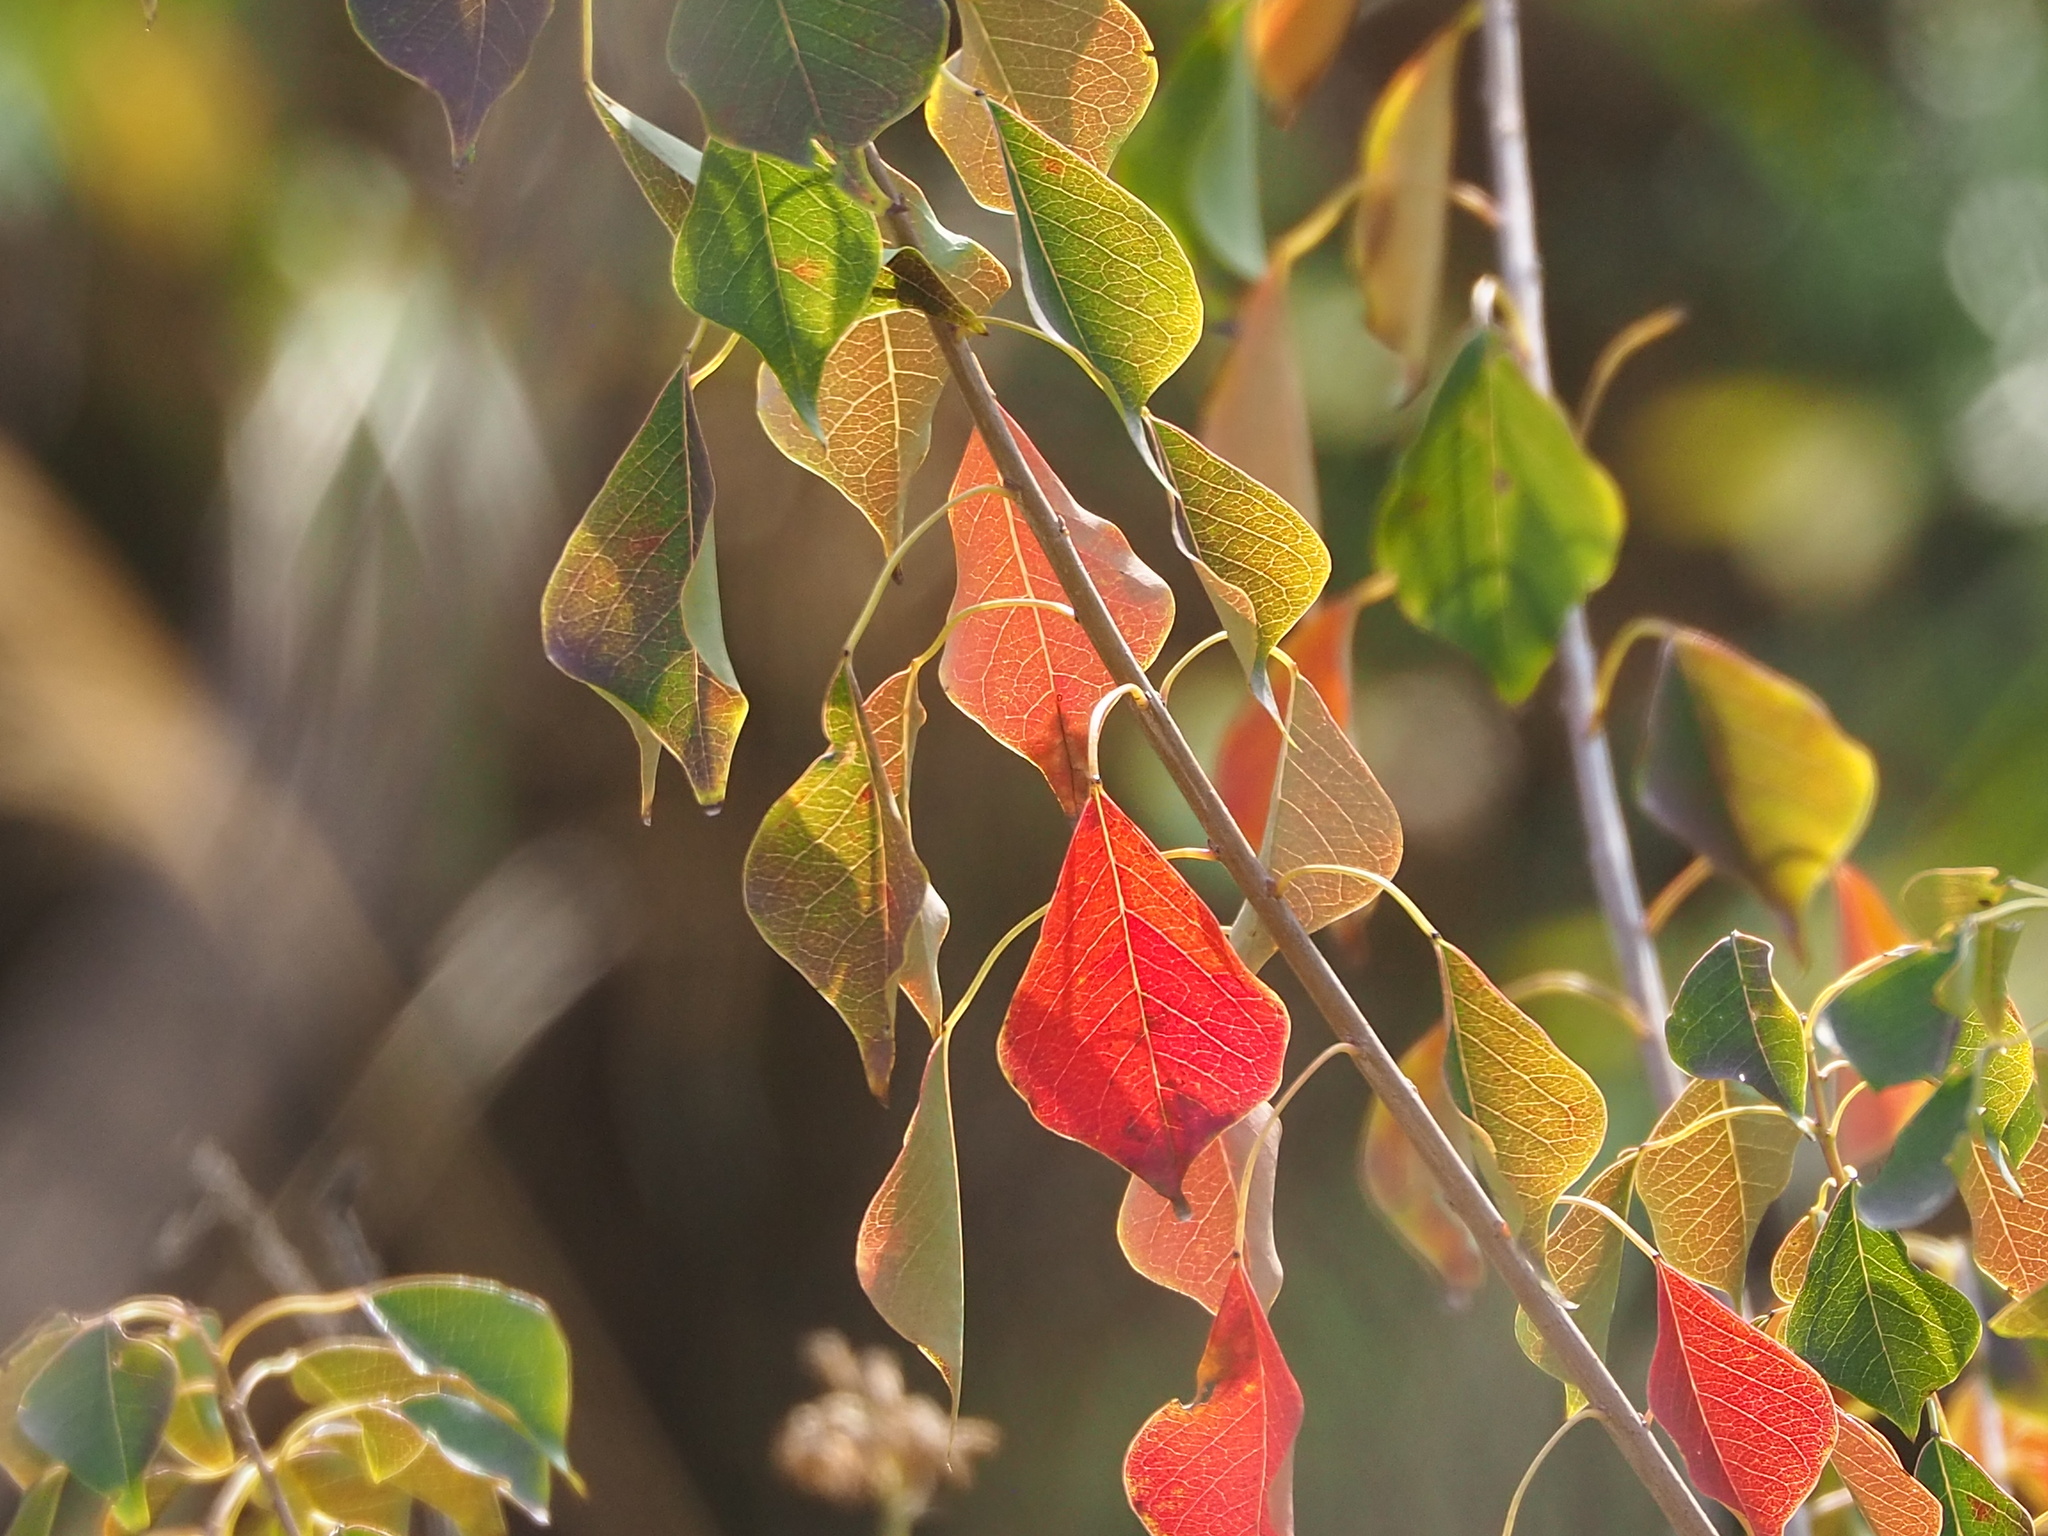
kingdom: Plantae
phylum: Tracheophyta
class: Magnoliopsida
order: Malpighiales
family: Euphorbiaceae
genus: Triadica
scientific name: Triadica sebifera
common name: Chinese tallow
